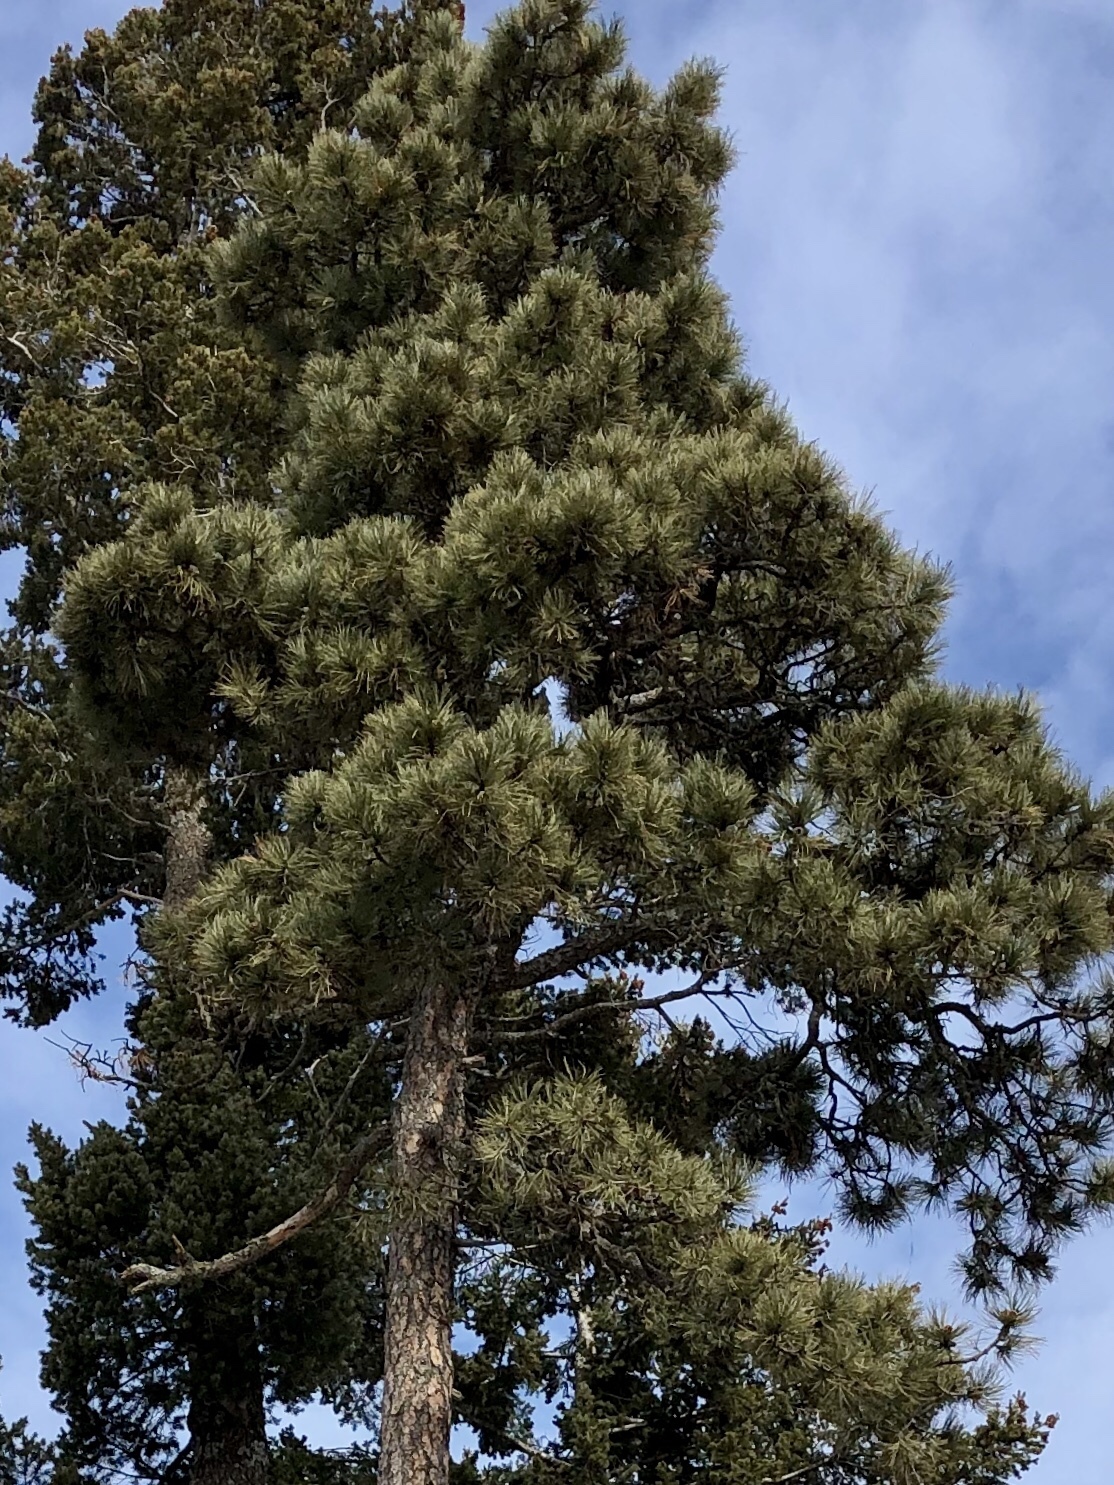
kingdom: Plantae
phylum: Tracheophyta
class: Pinopsida
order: Pinales
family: Pinaceae
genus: Pinus
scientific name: Pinus ponderosa
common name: Western yellow-pine
